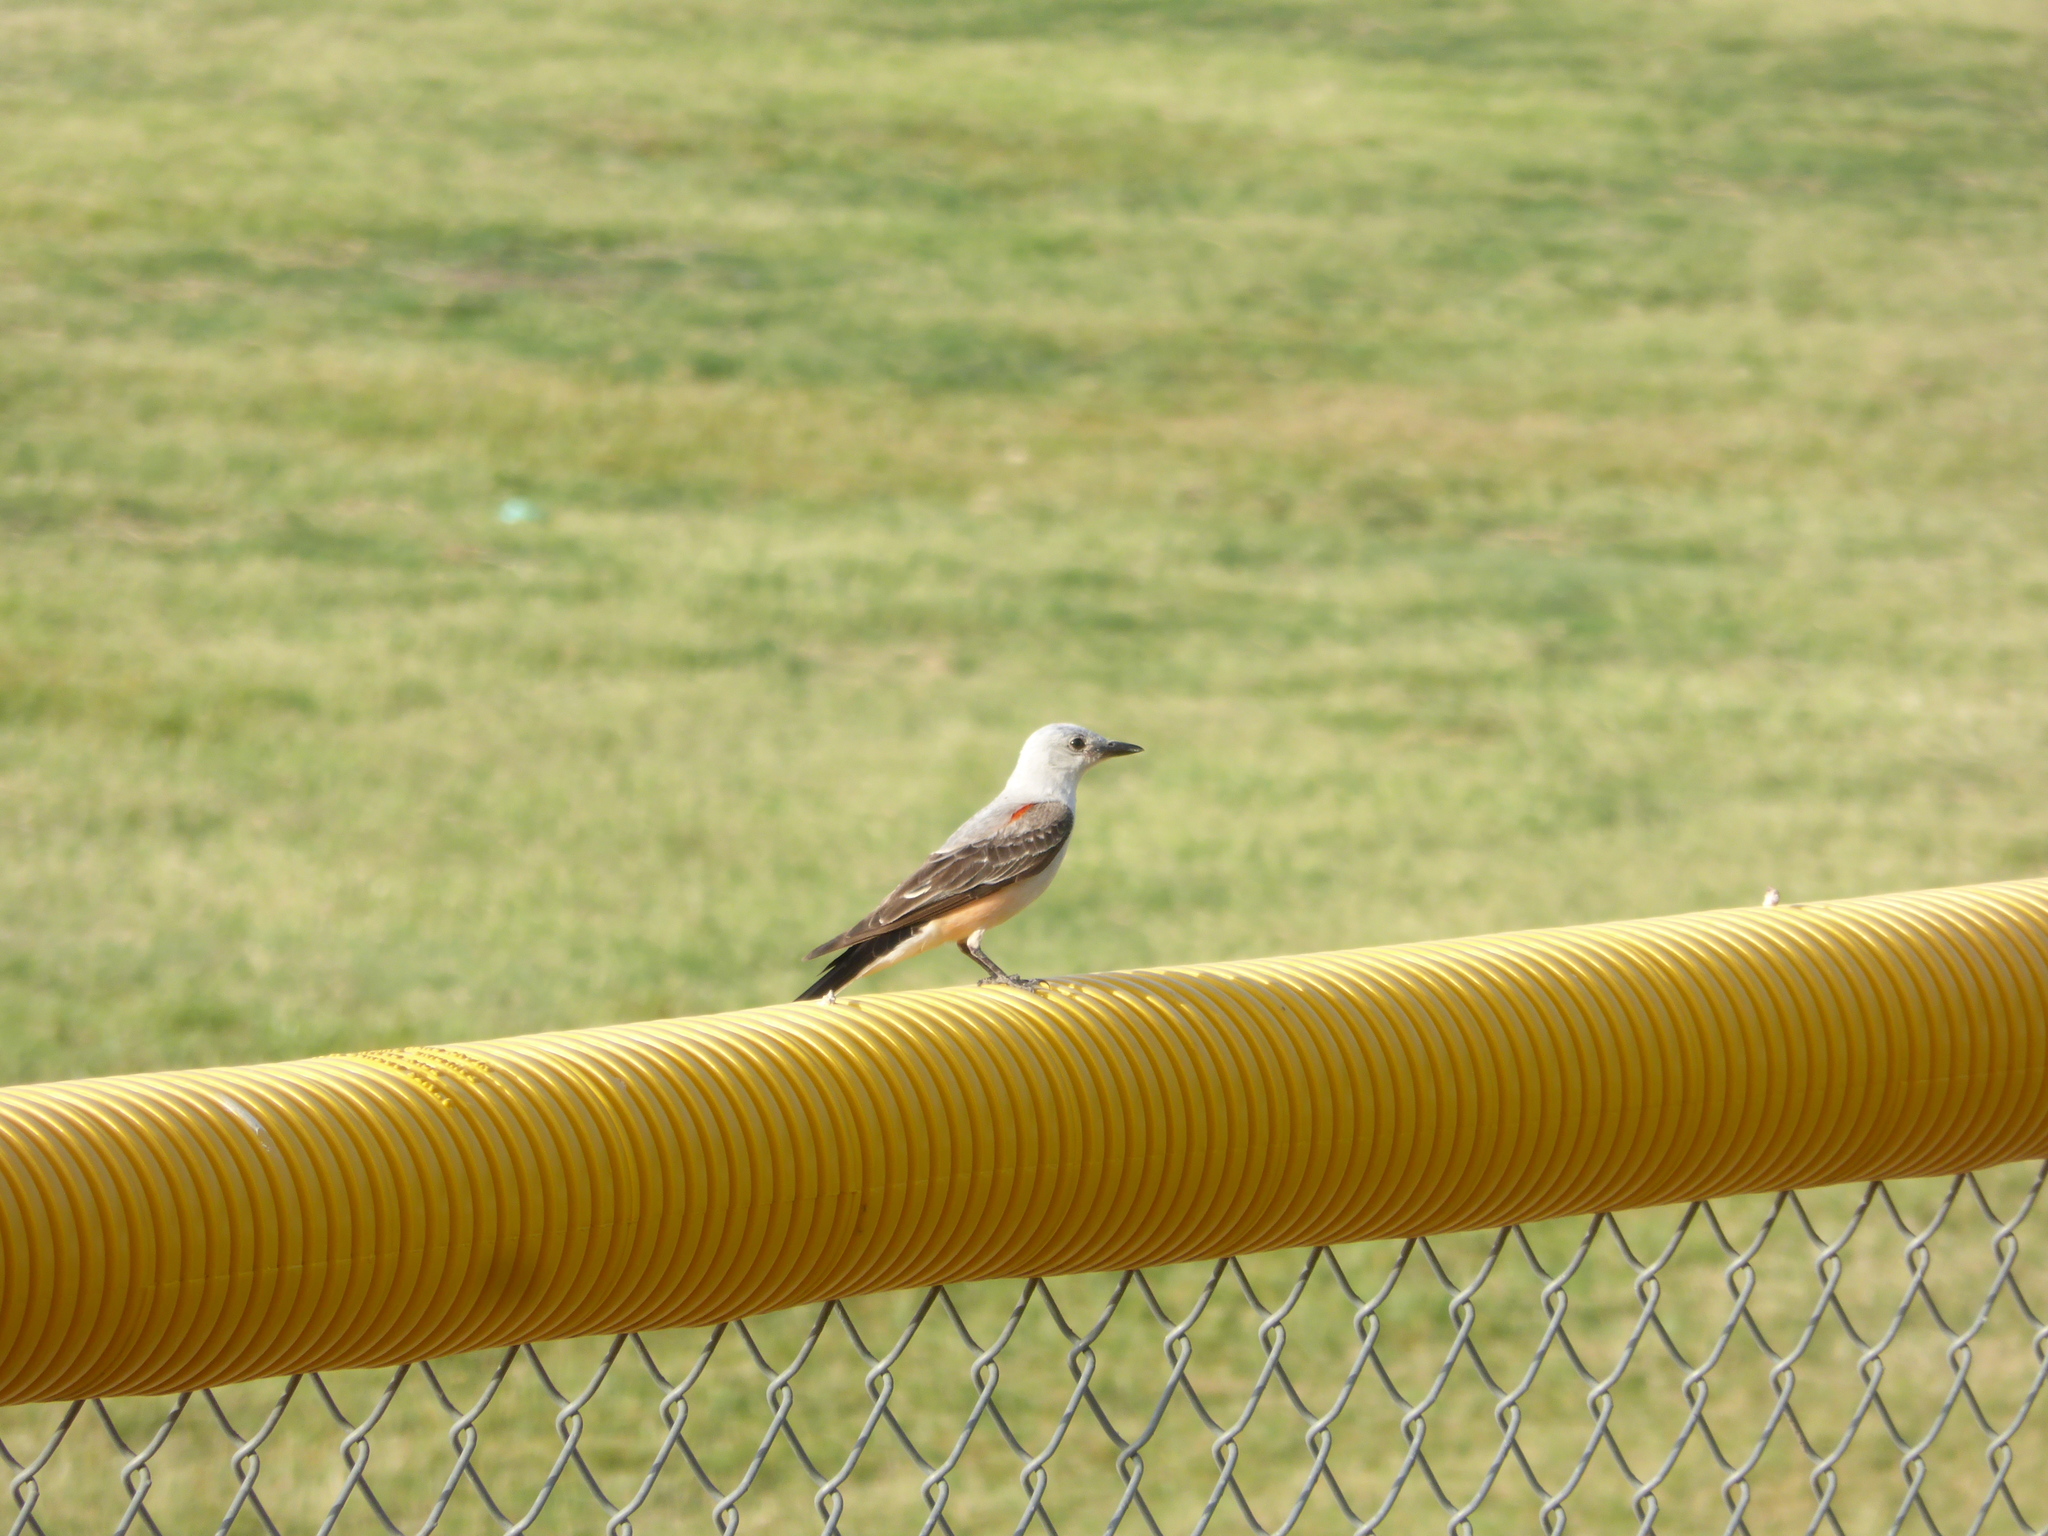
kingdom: Animalia
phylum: Chordata
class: Aves
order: Passeriformes
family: Tyrannidae
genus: Tyrannus
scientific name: Tyrannus forficatus
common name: Scissor-tailed flycatcher
